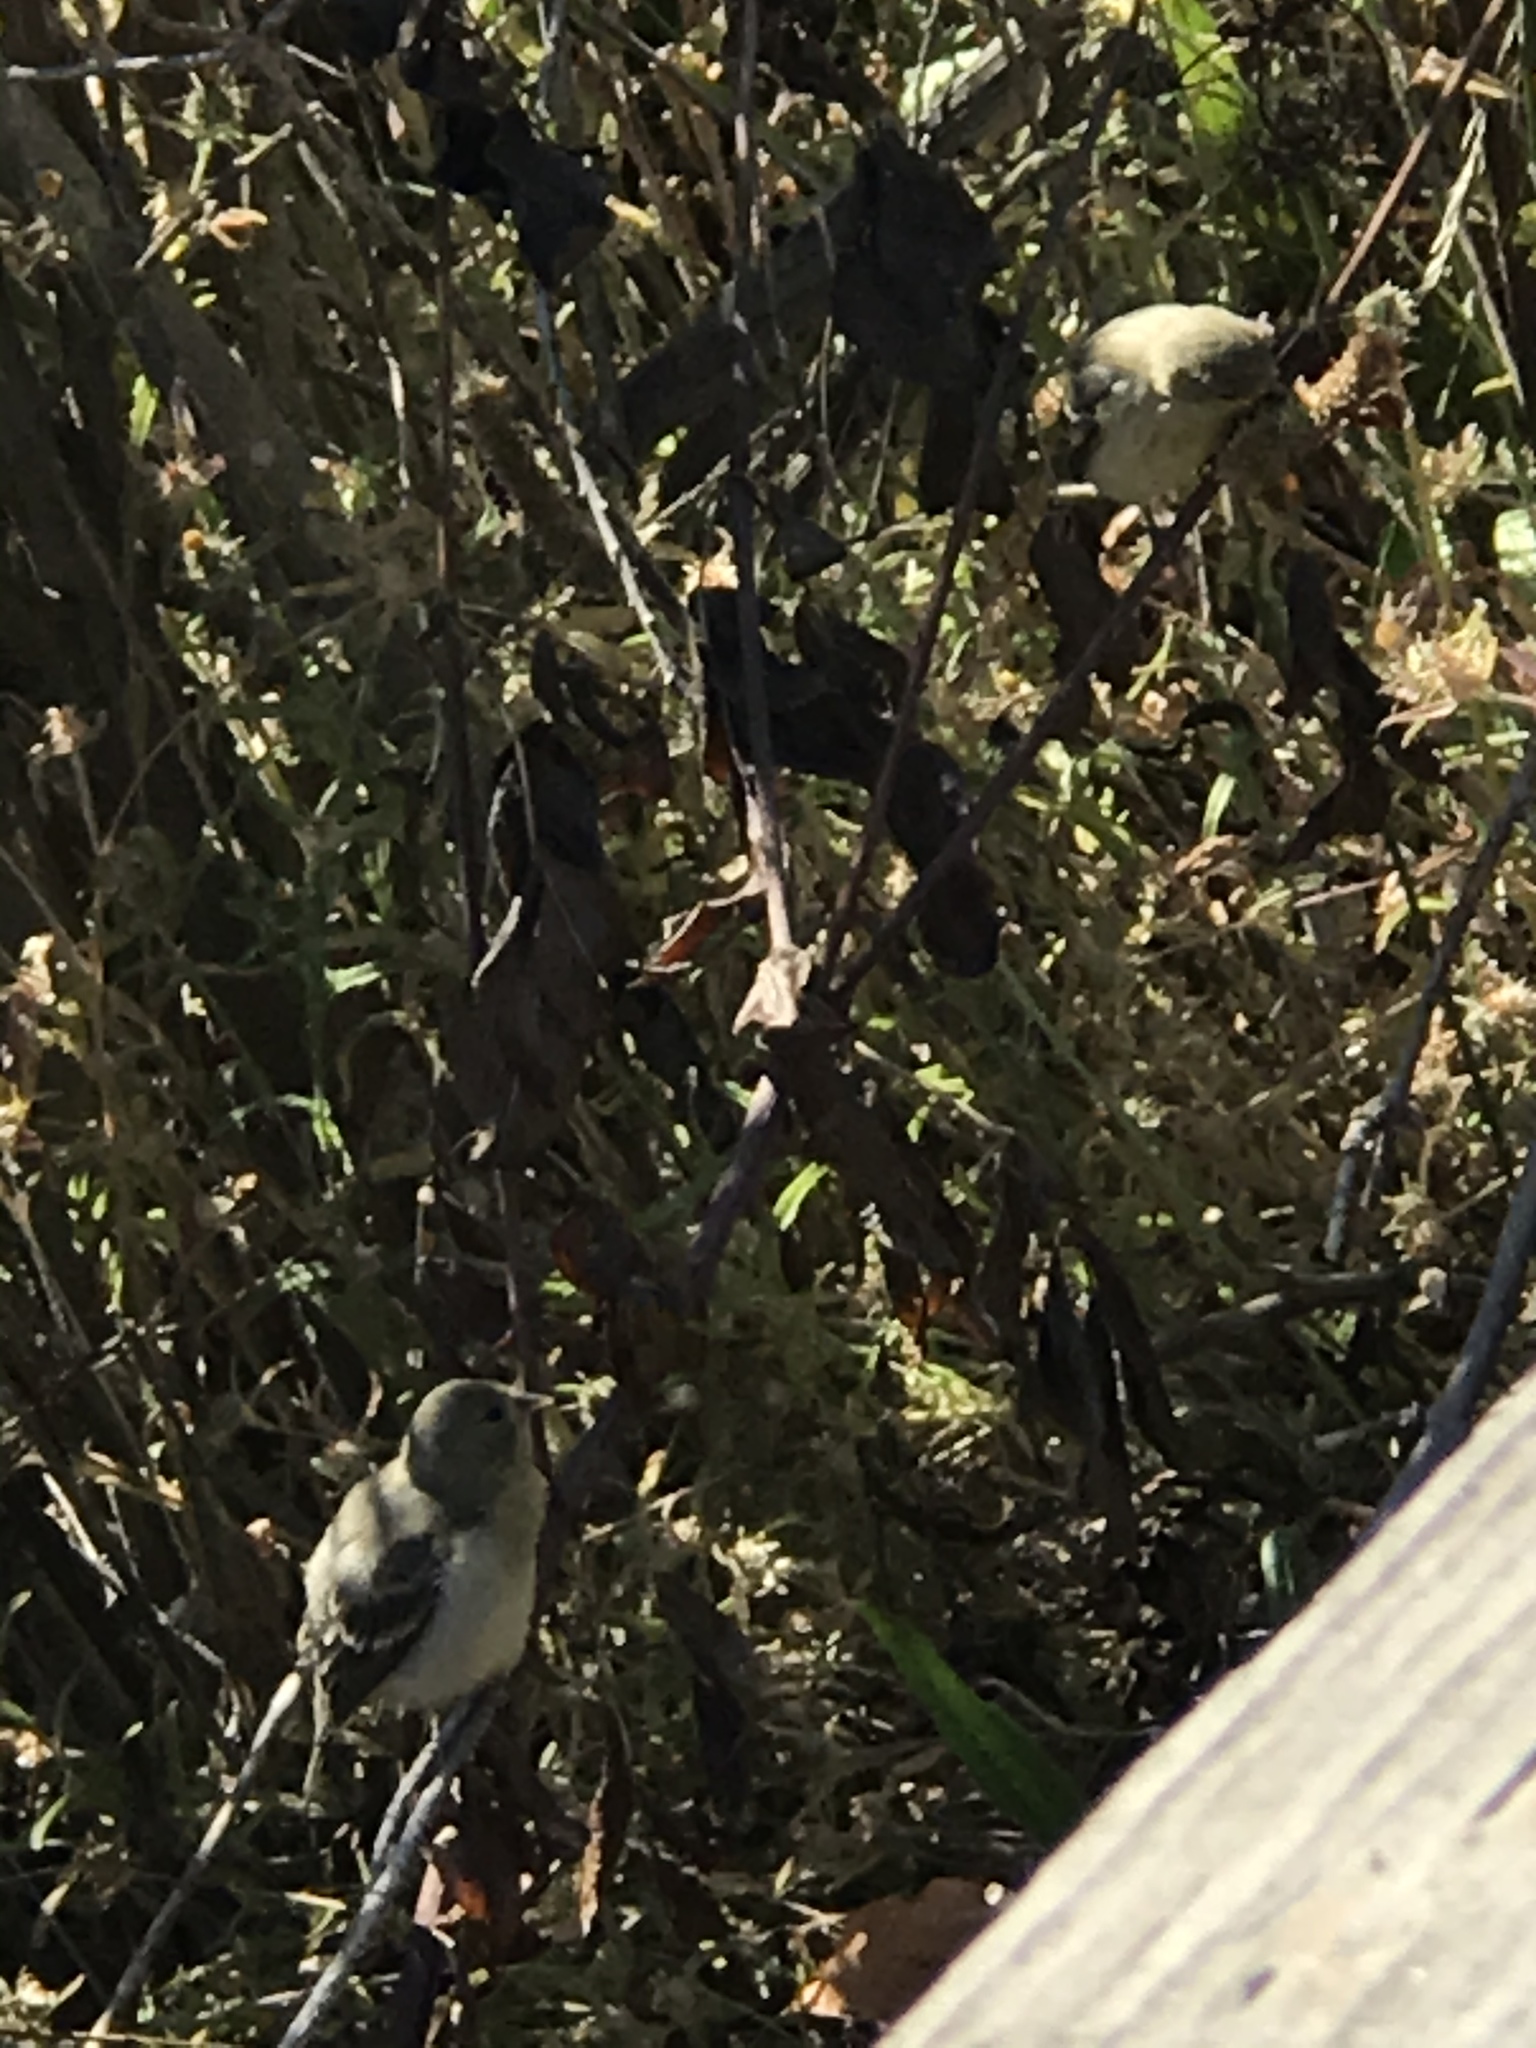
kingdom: Animalia
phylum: Chordata
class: Aves
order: Passeriformes
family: Fringillidae
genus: Spinus
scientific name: Spinus psaltria
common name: Lesser goldfinch
